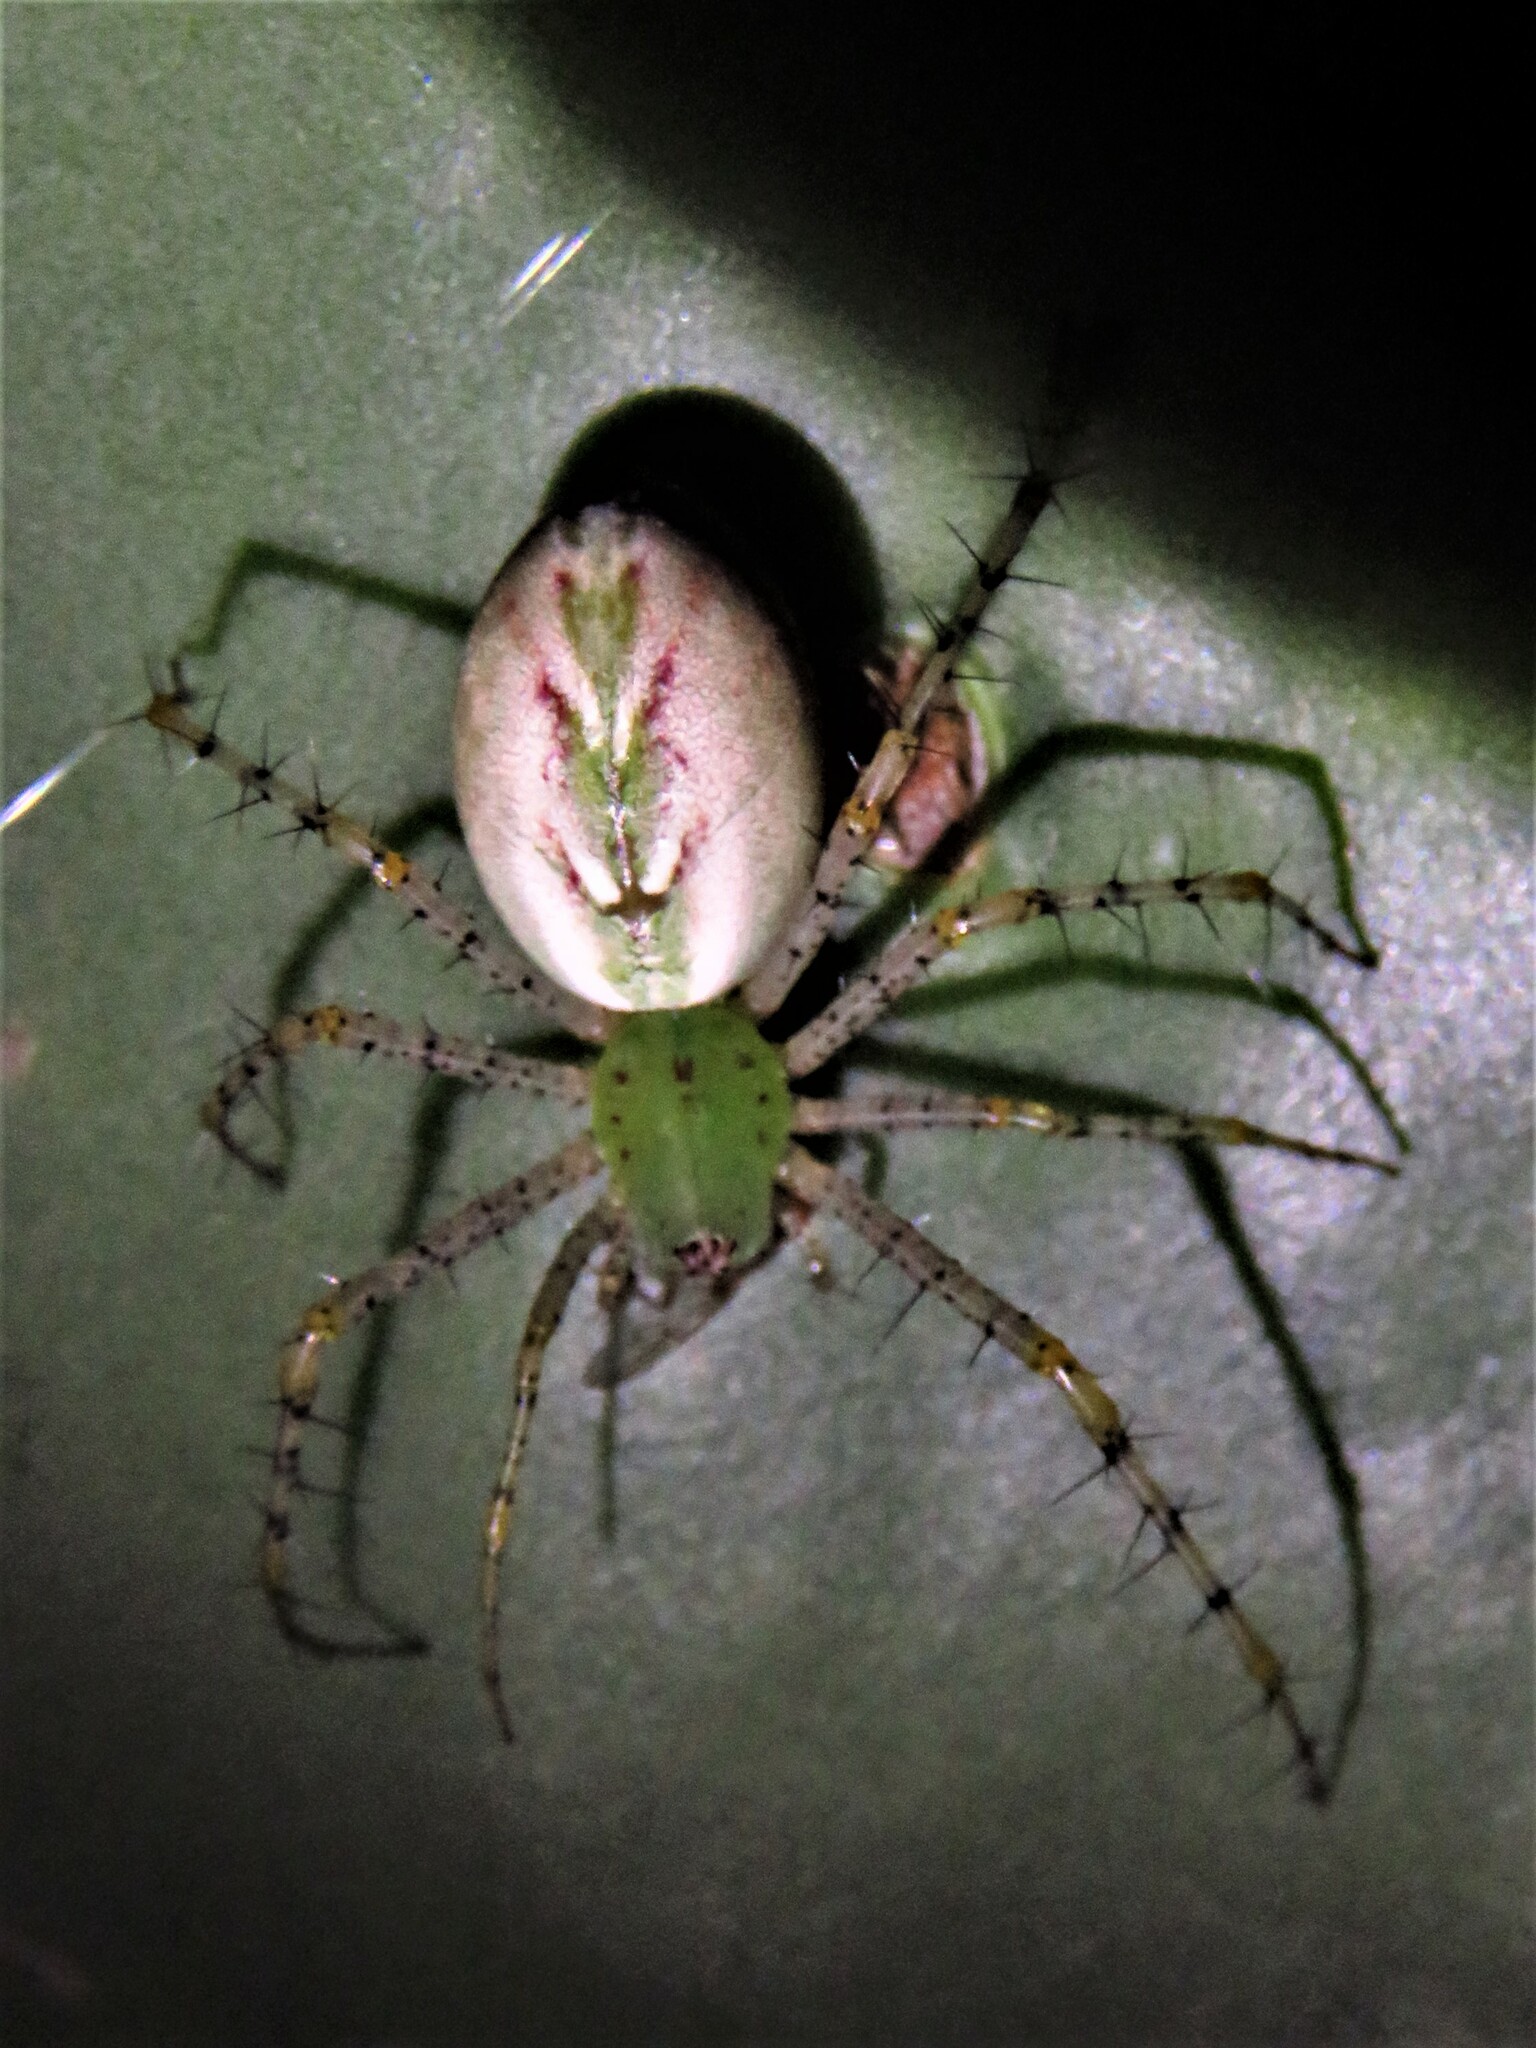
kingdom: Animalia
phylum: Arthropoda
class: Arachnida
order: Araneae
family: Oxyopidae
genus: Peucetia
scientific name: Peucetia viridans
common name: Lynx spiders
